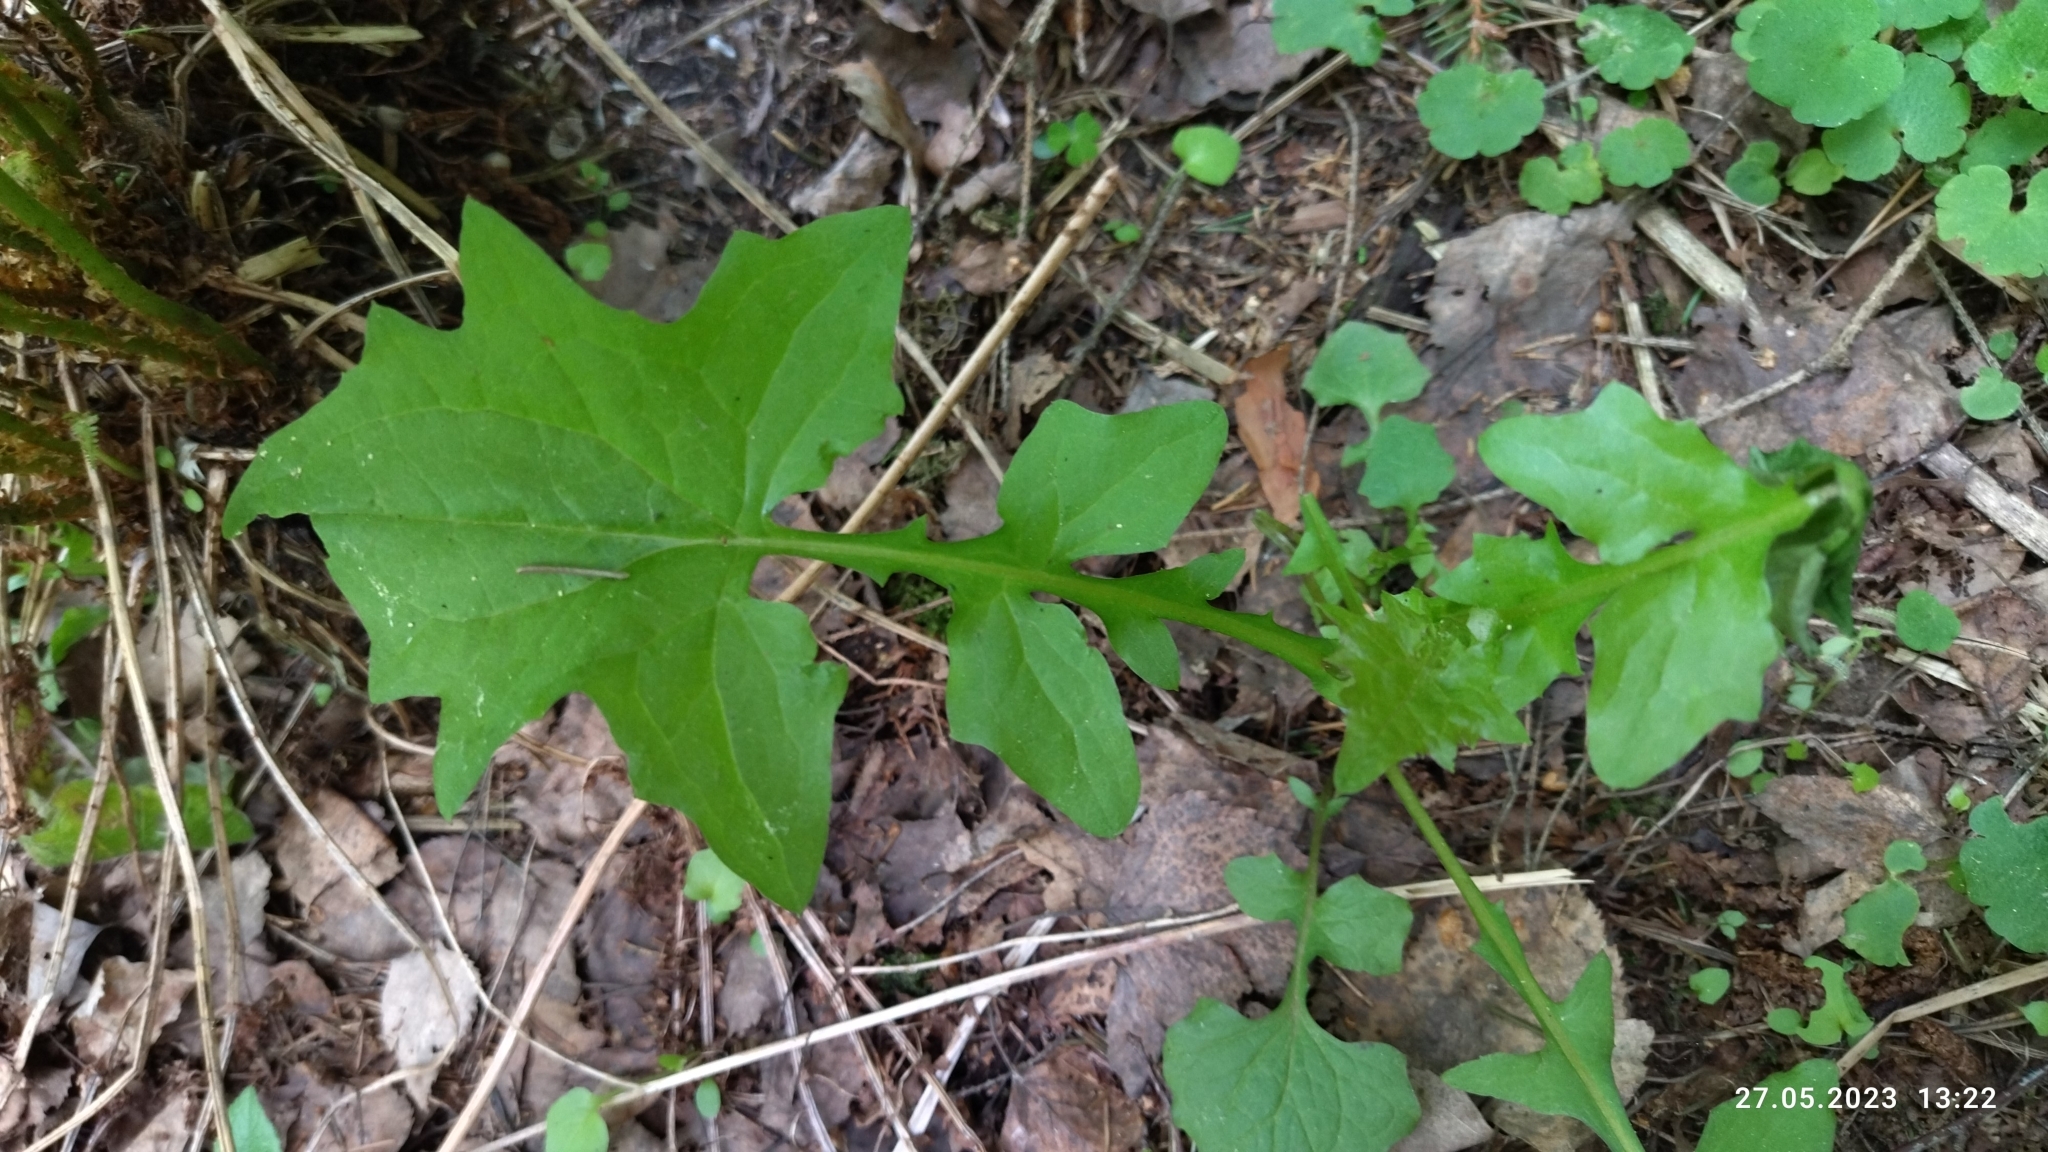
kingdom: Plantae
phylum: Tracheophyta
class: Magnoliopsida
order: Asterales
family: Asteraceae
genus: Mycelis
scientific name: Mycelis muralis
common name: Wall lettuce
